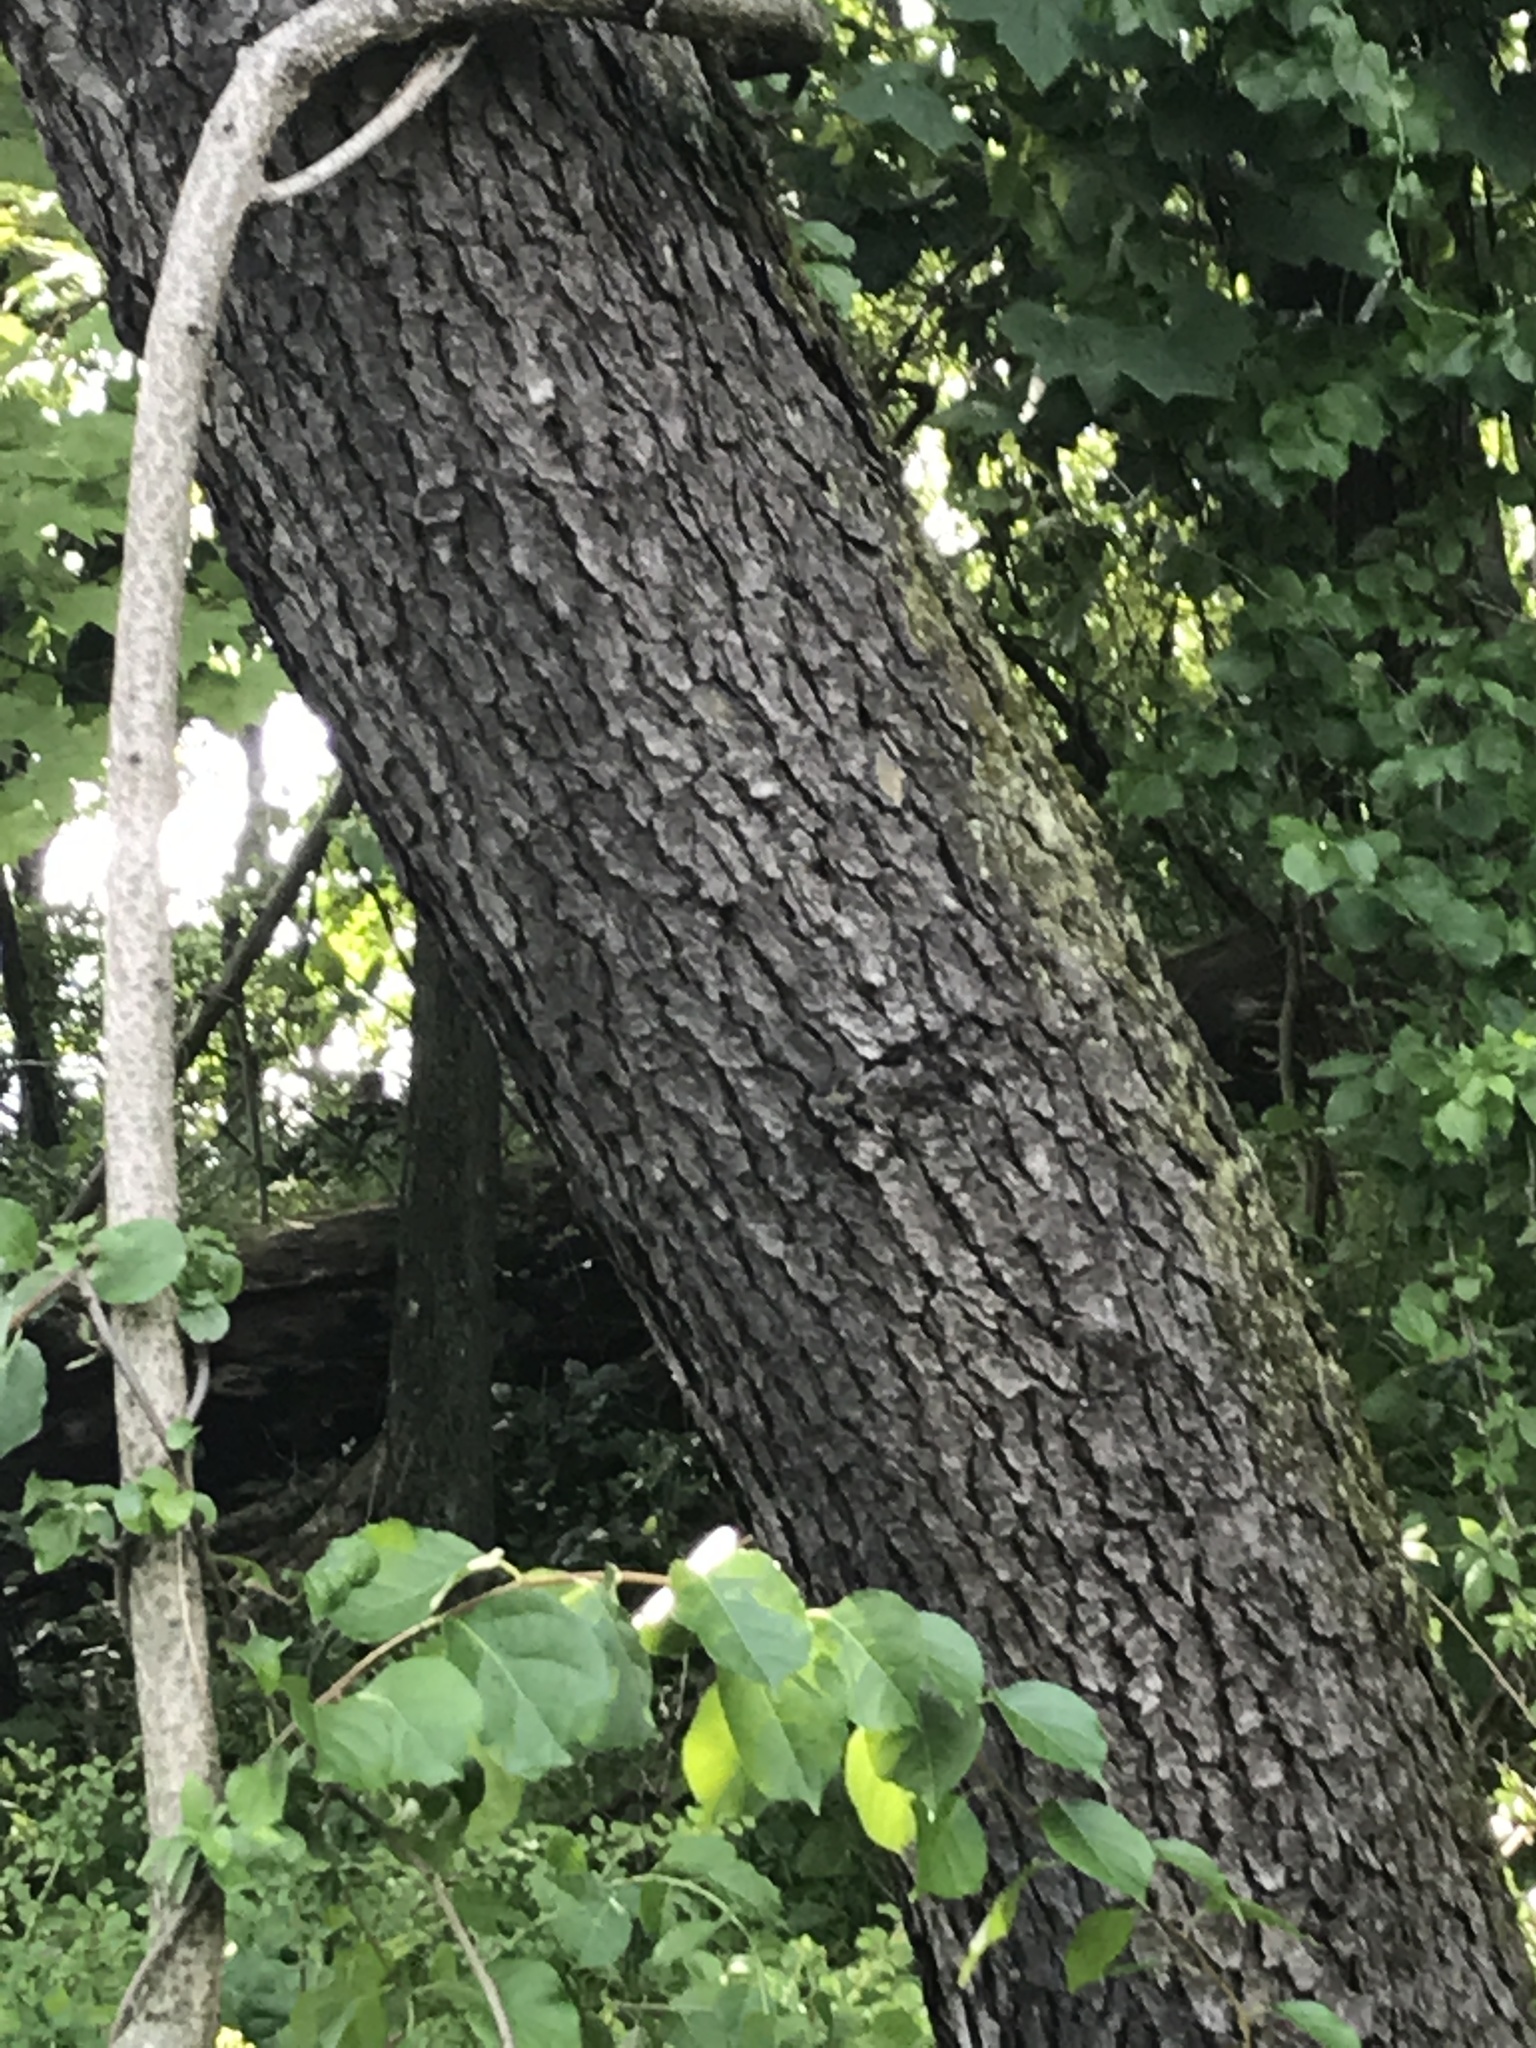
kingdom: Plantae
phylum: Tracheophyta
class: Magnoliopsida
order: Laurales
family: Lauraceae
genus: Sassafras
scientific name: Sassafras albidum
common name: Sassafras
